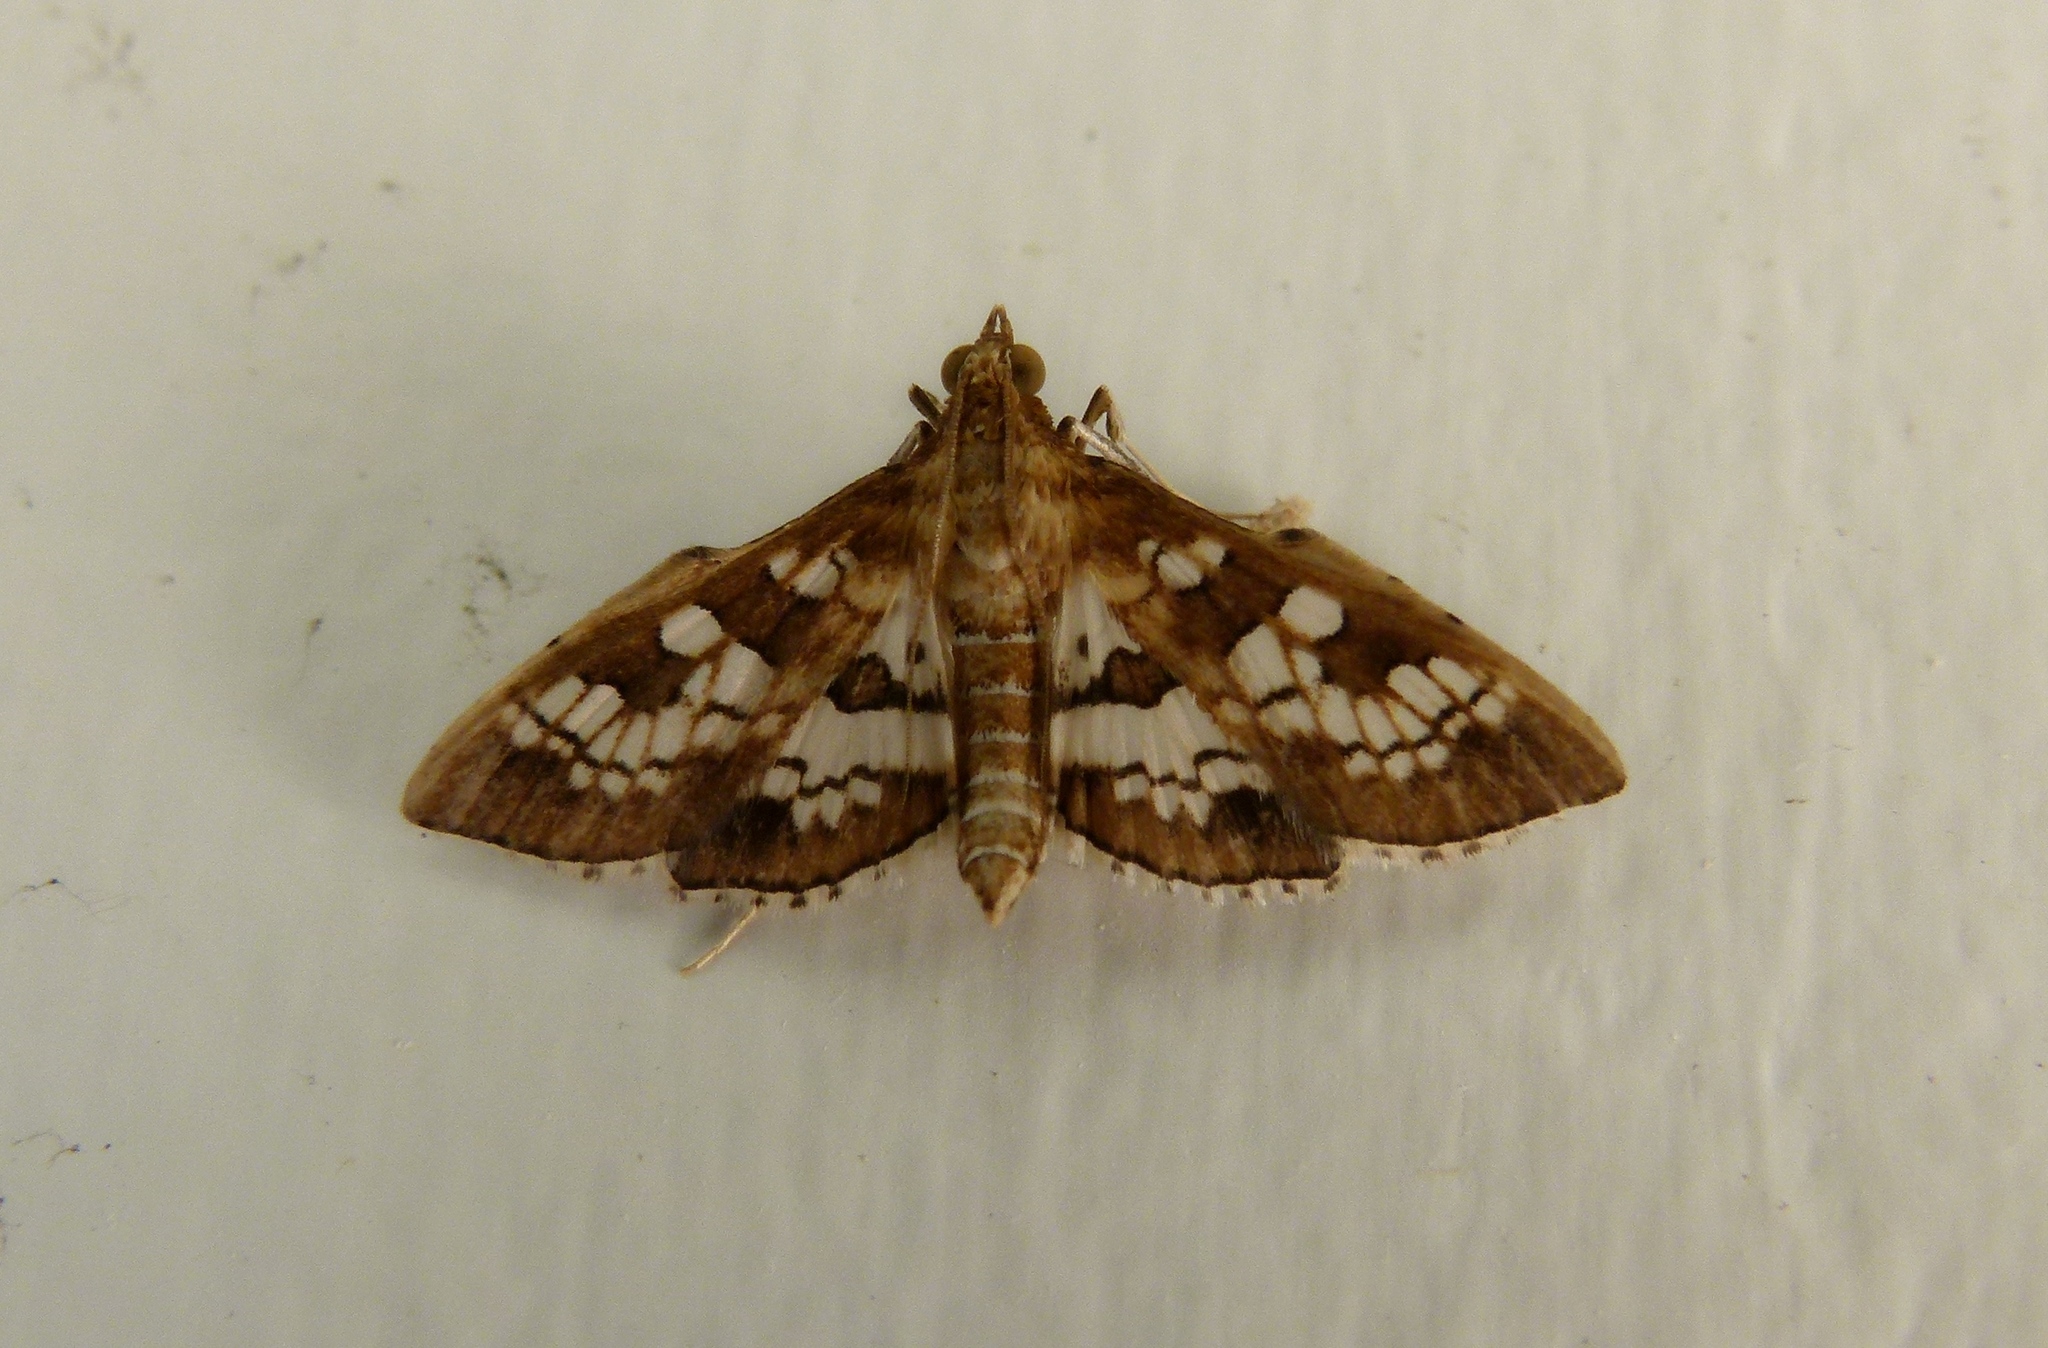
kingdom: Animalia
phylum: Arthropoda
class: Insecta
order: Lepidoptera
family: Crambidae
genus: Sameodes
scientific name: Sameodes cancellalis
